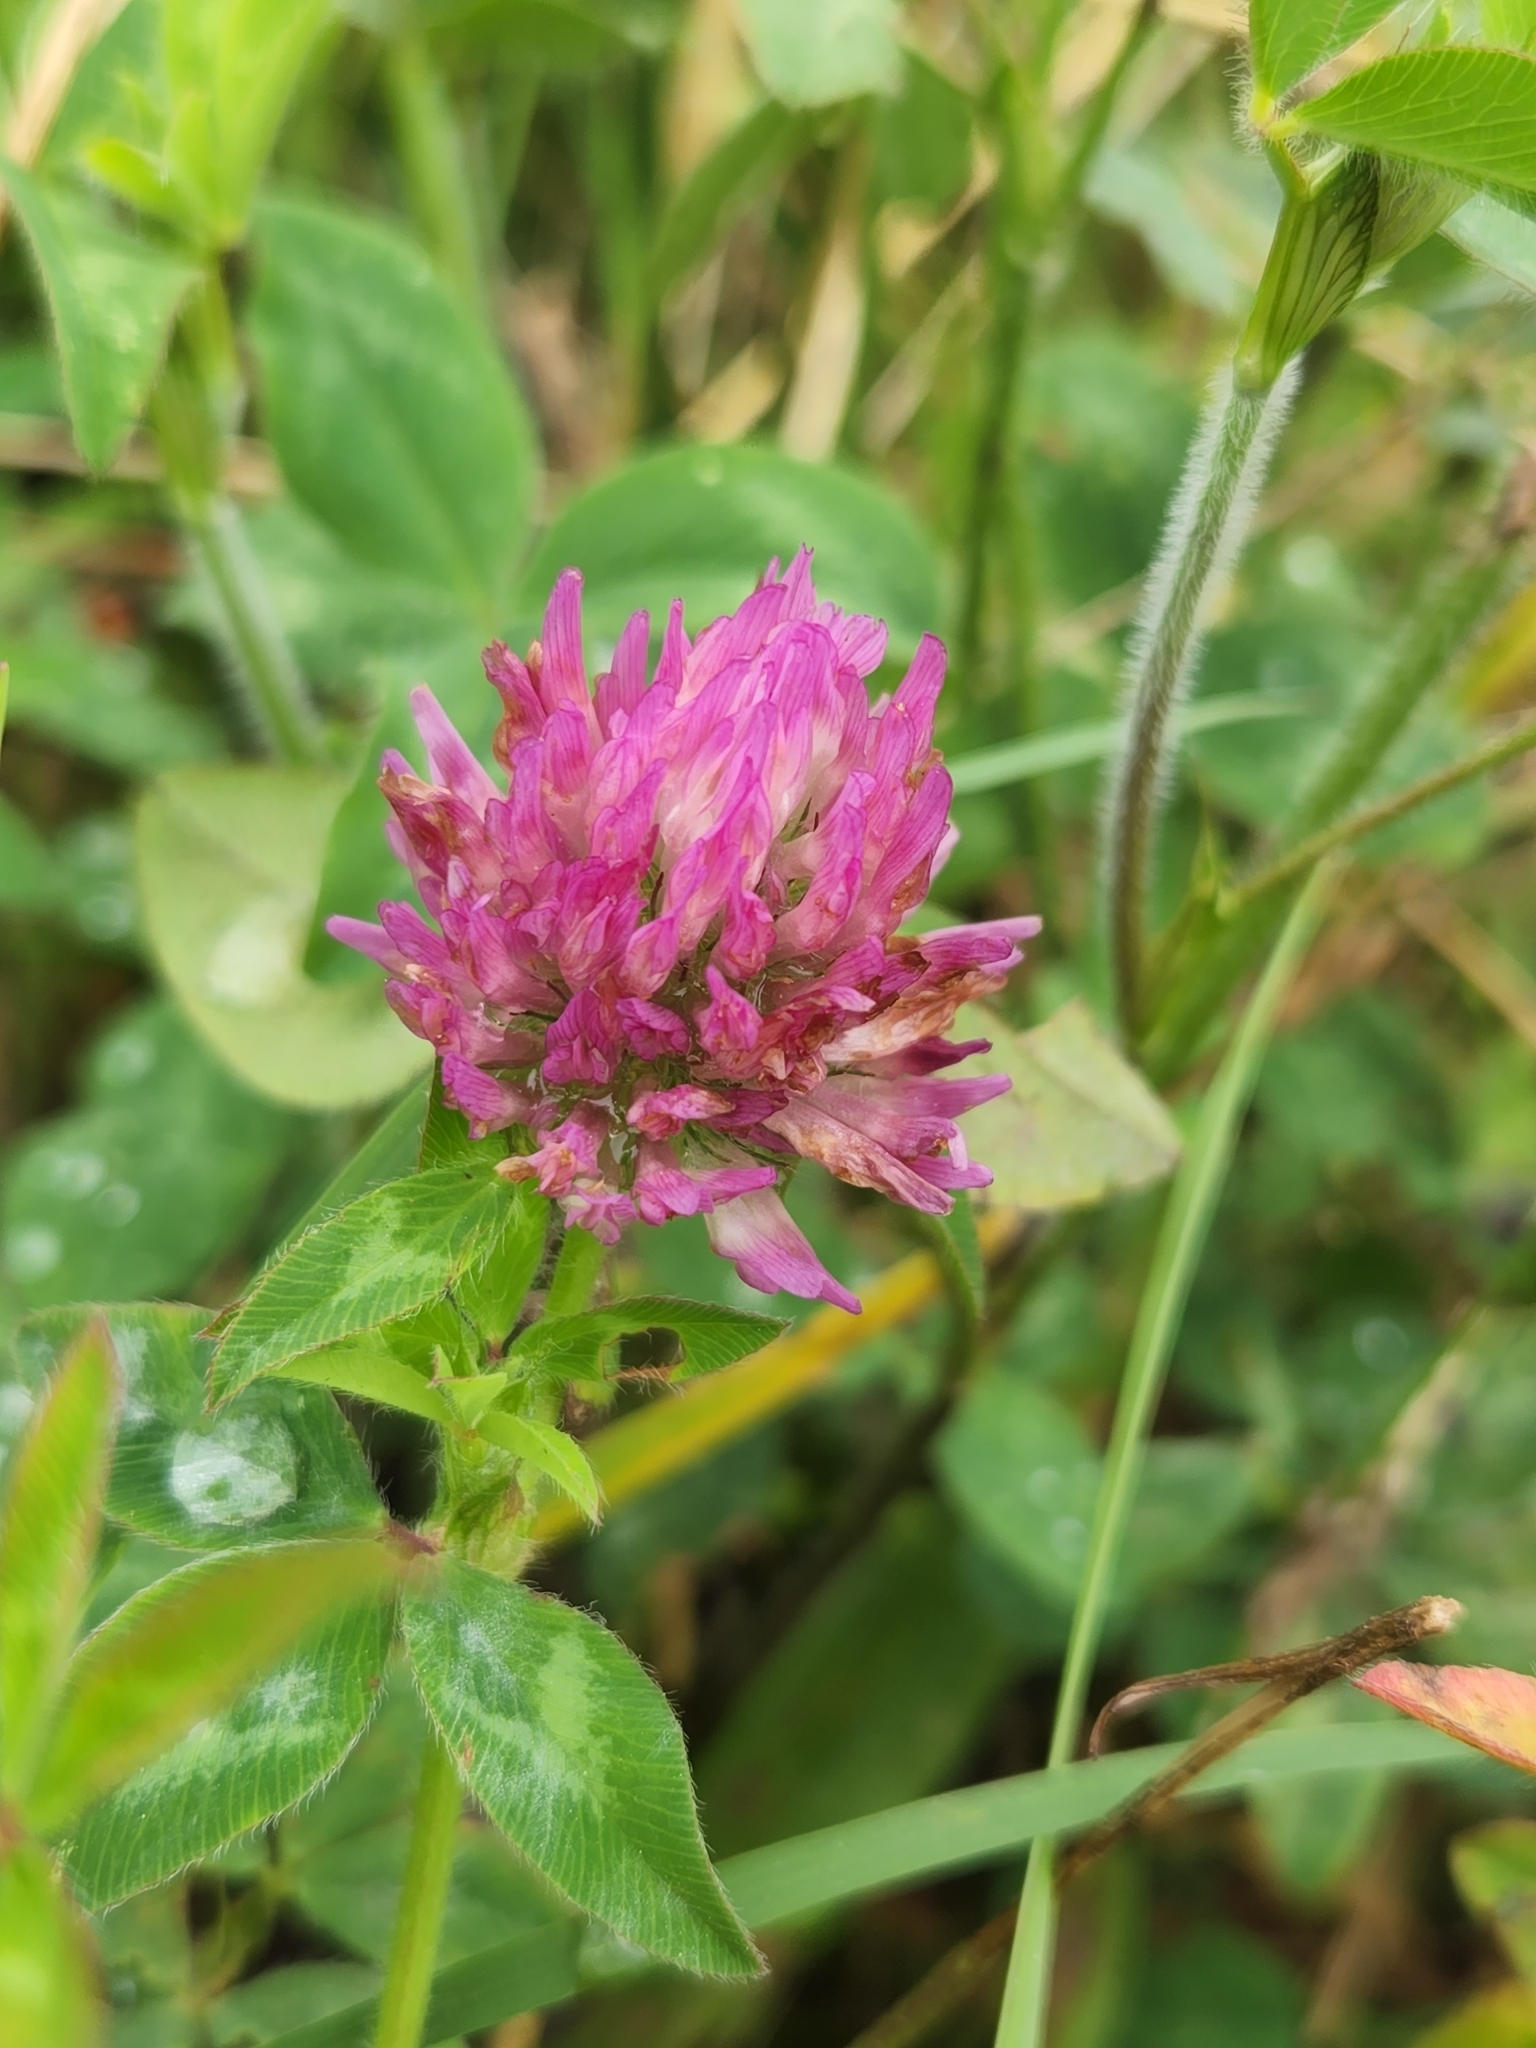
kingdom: Plantae
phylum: Tracheophyta
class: Magnoliopsida
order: Fabales
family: Fabaceae
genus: Trifolium
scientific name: Trifolium pratense
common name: Red clover
